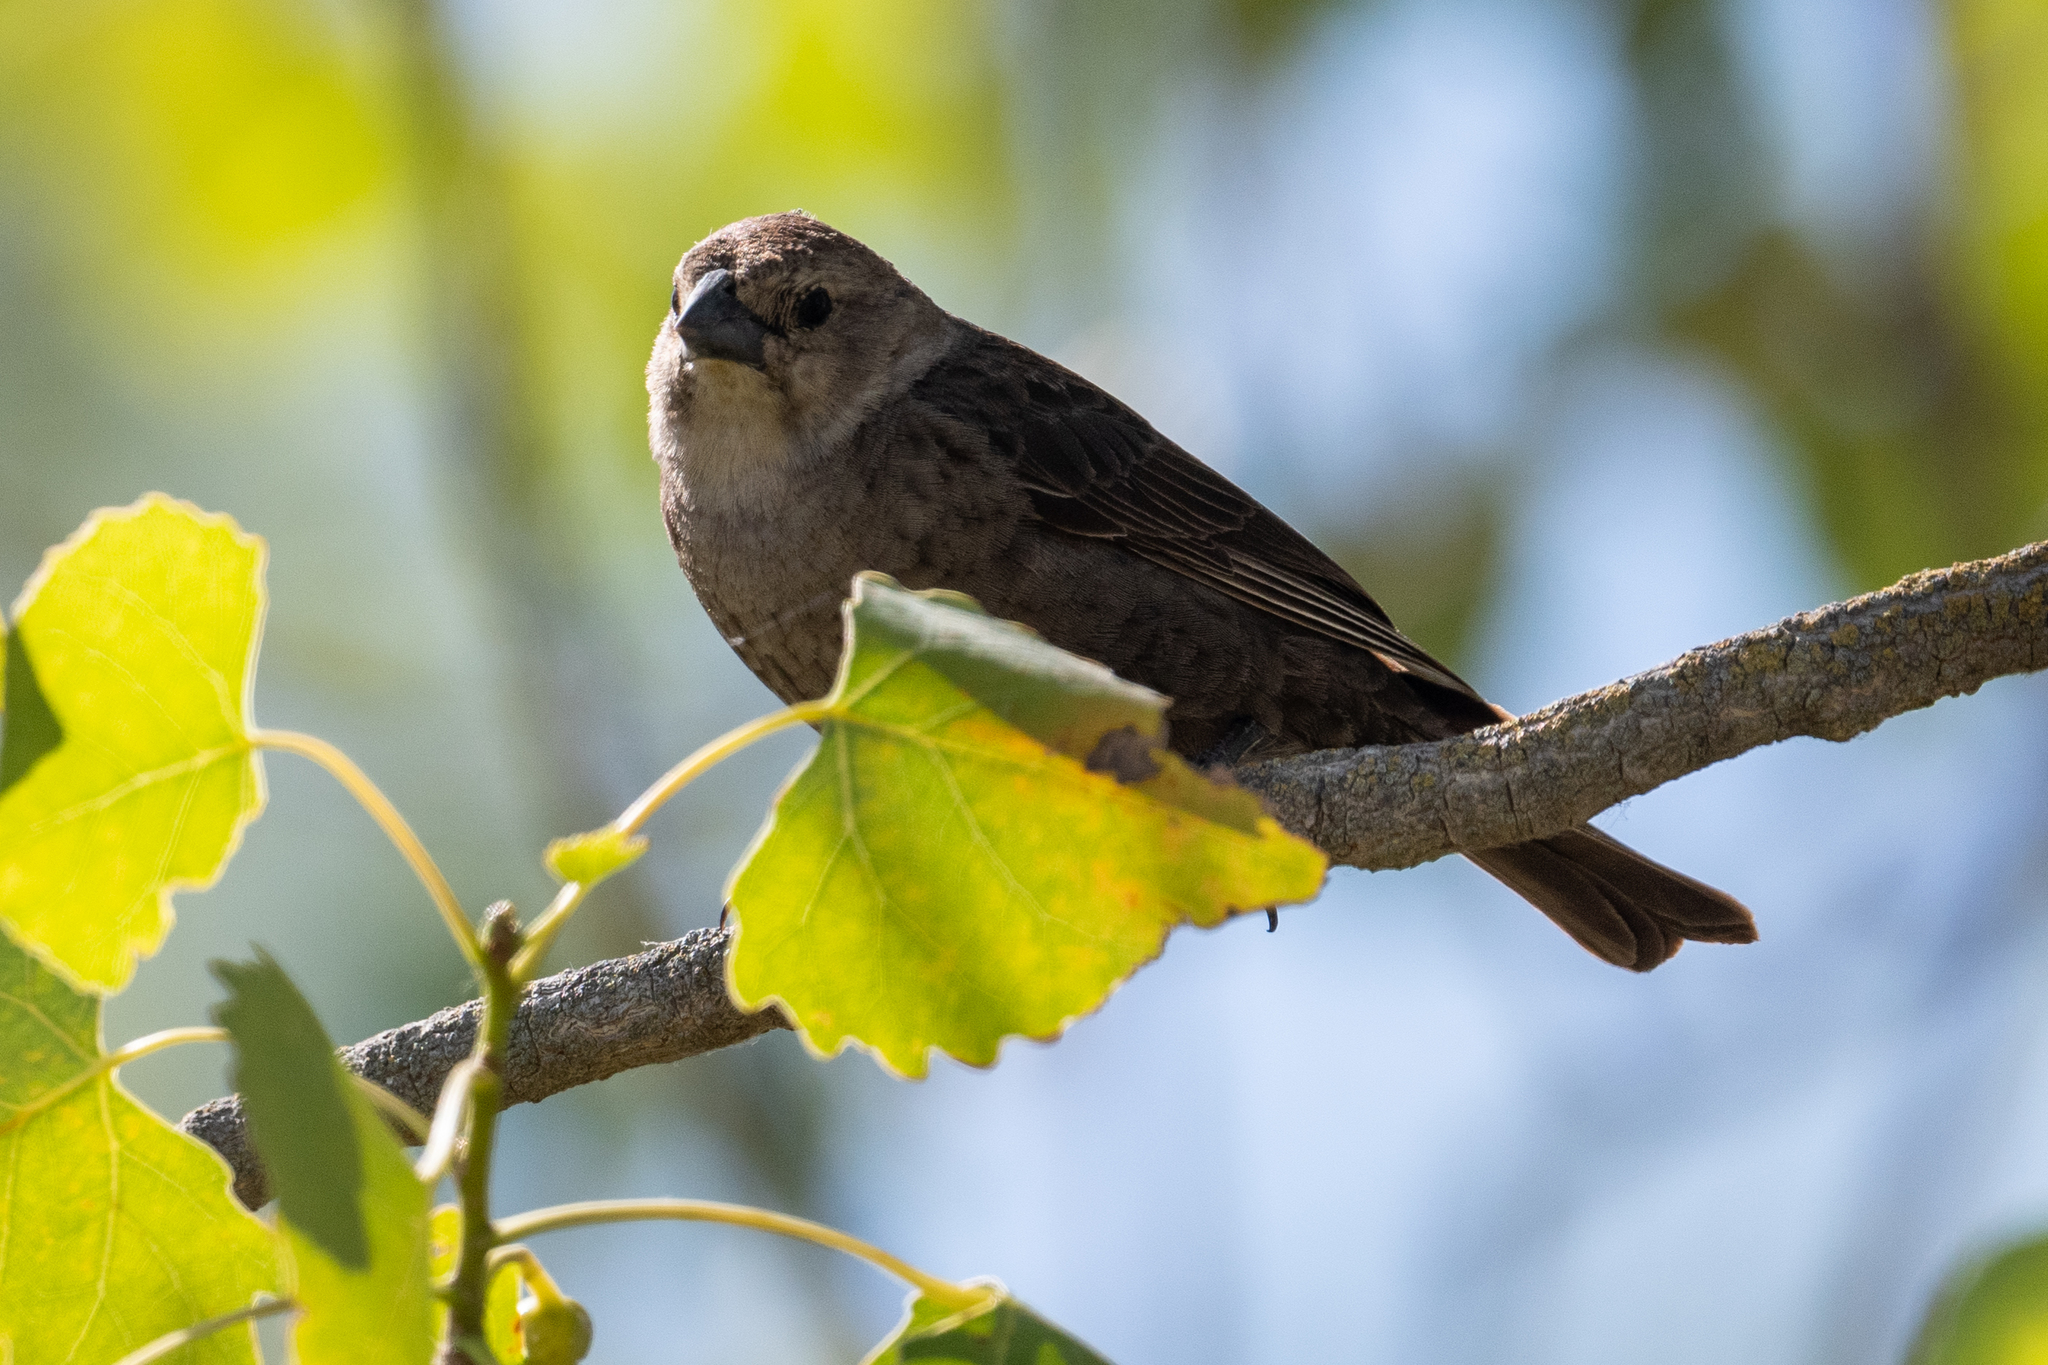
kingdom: Animalia
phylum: Chordata
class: Aves
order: Passeriformes
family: Icteridae
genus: Molothrus
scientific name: Molothrus ater
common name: Brown-headed cowbird
